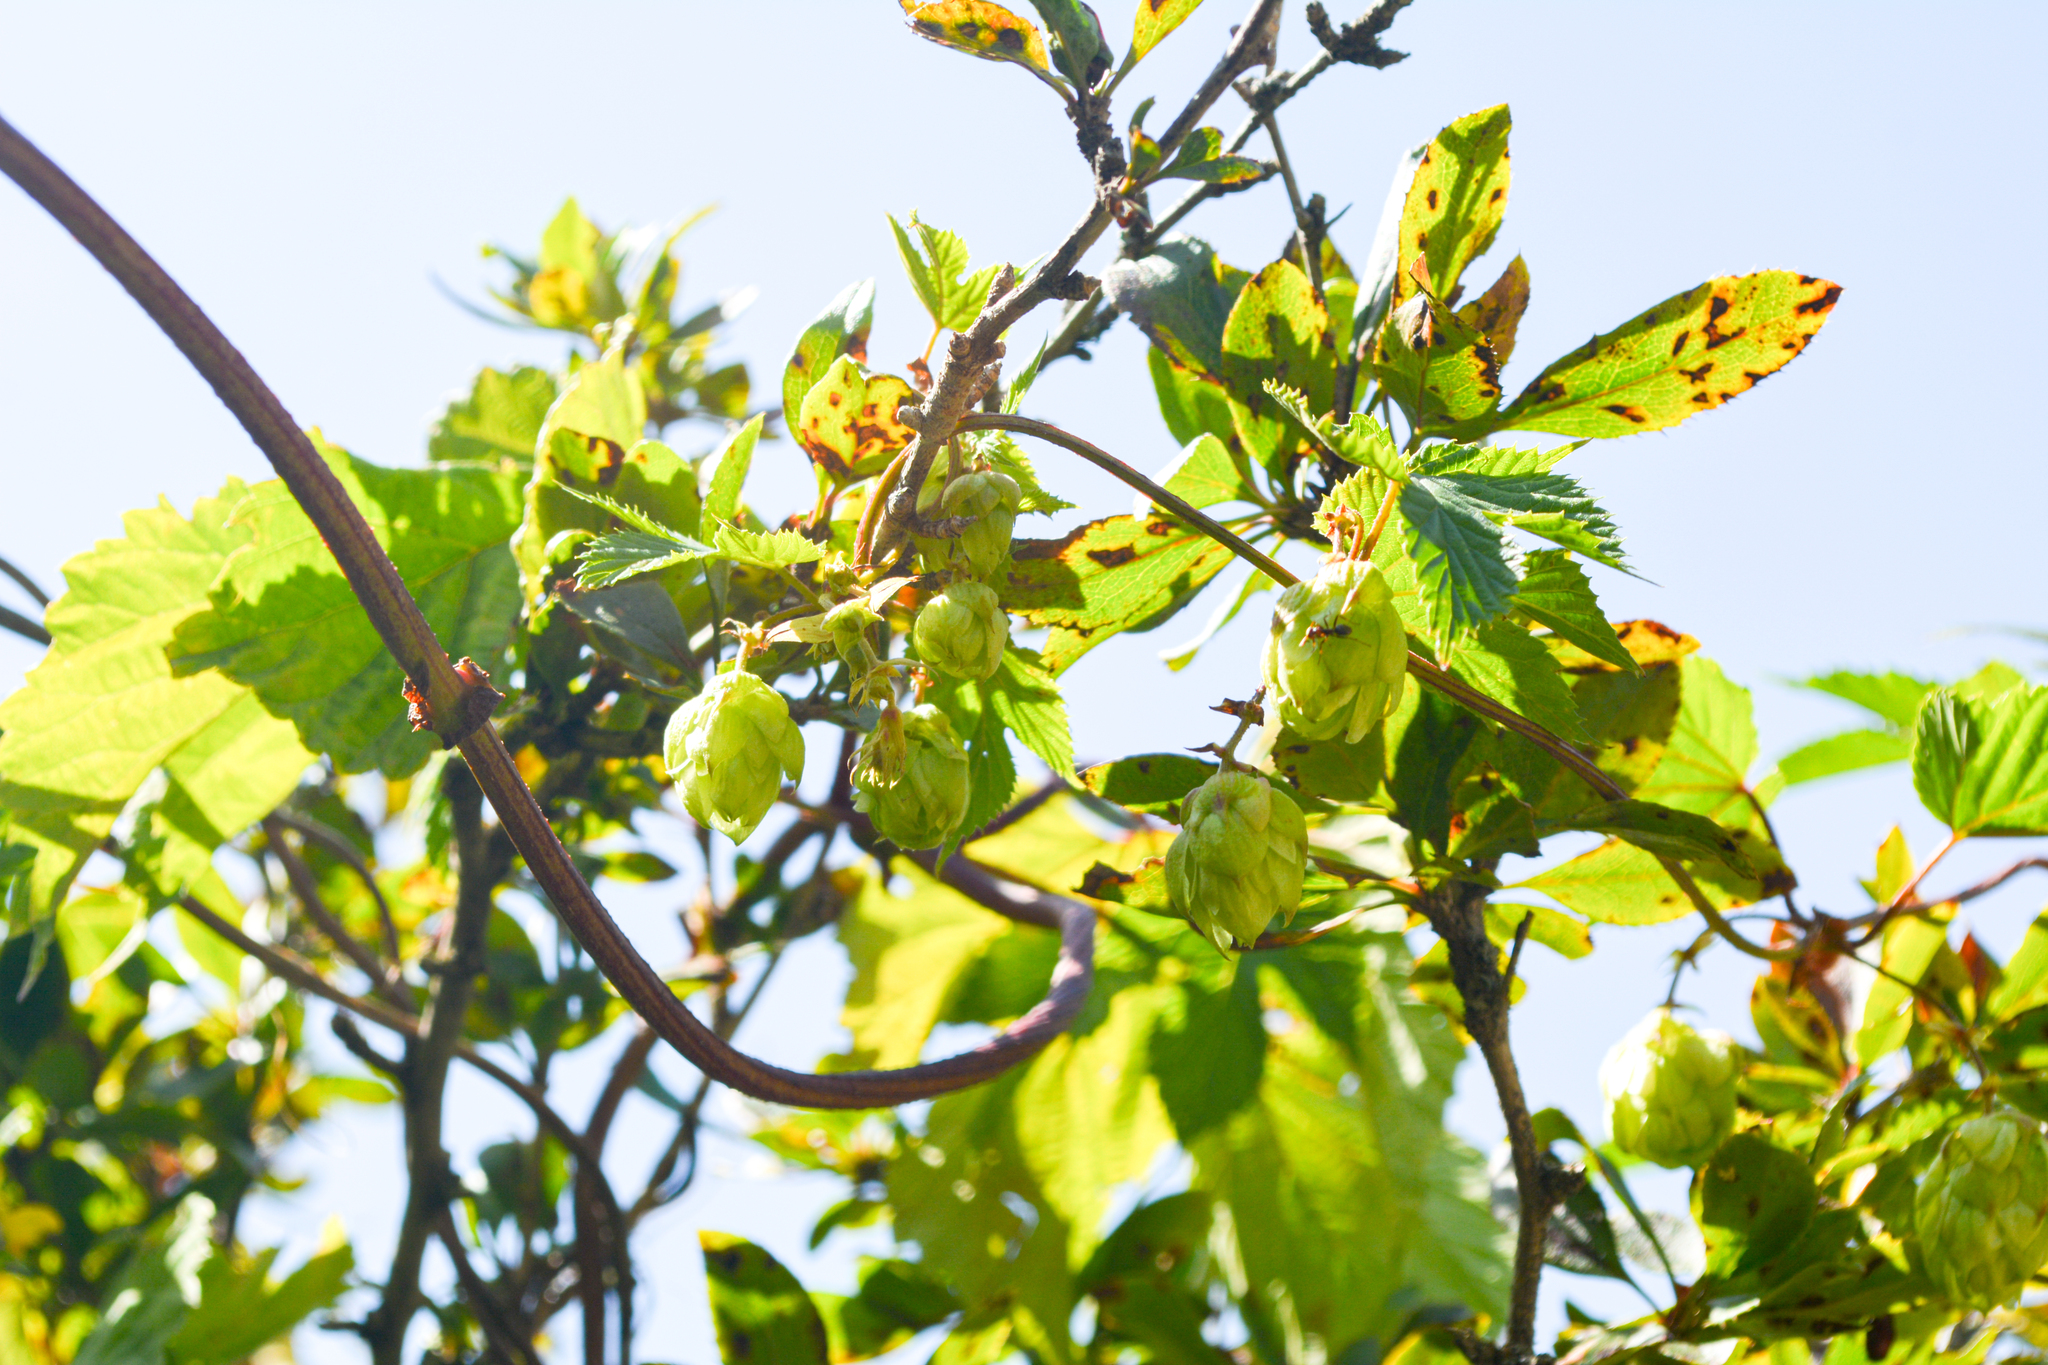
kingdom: Plantae
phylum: Tracheophyta
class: Magnoliopsida
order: Rosales
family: Cannabaceae
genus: Humulus
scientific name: Humulus lupulus
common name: Hop
